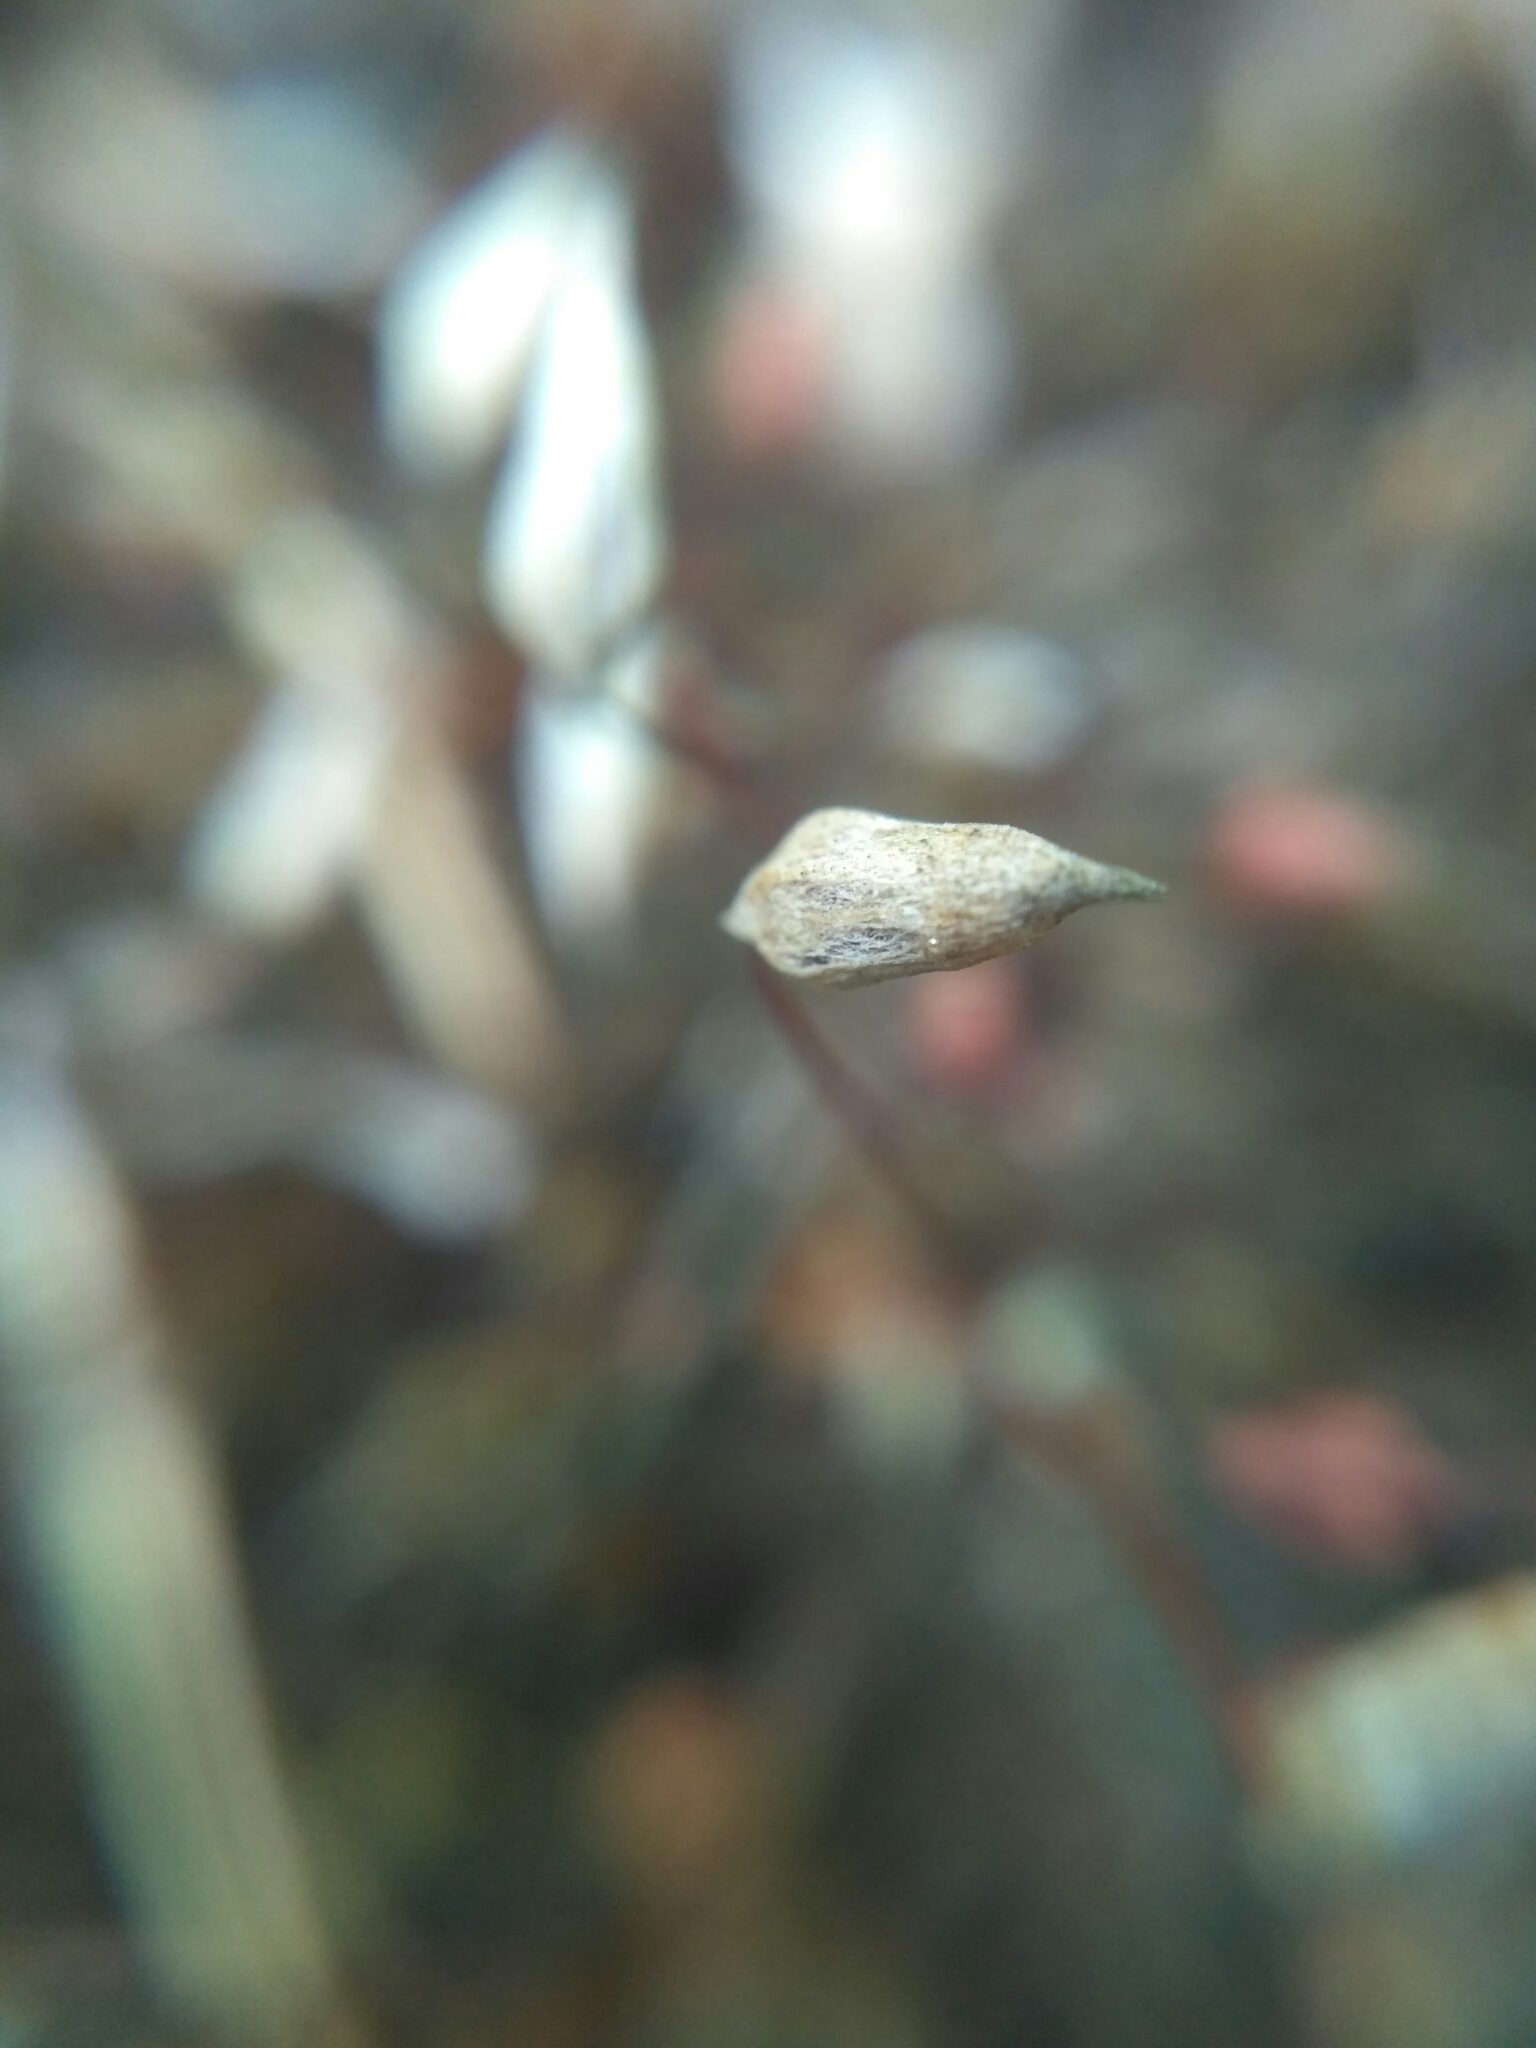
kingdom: Plantae
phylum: Bryophyta
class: Polytrichopsida
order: Polytrichales
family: Polytrichaceae
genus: Polytrichum
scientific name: Polytrichum piliferum
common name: Bristly haircap
